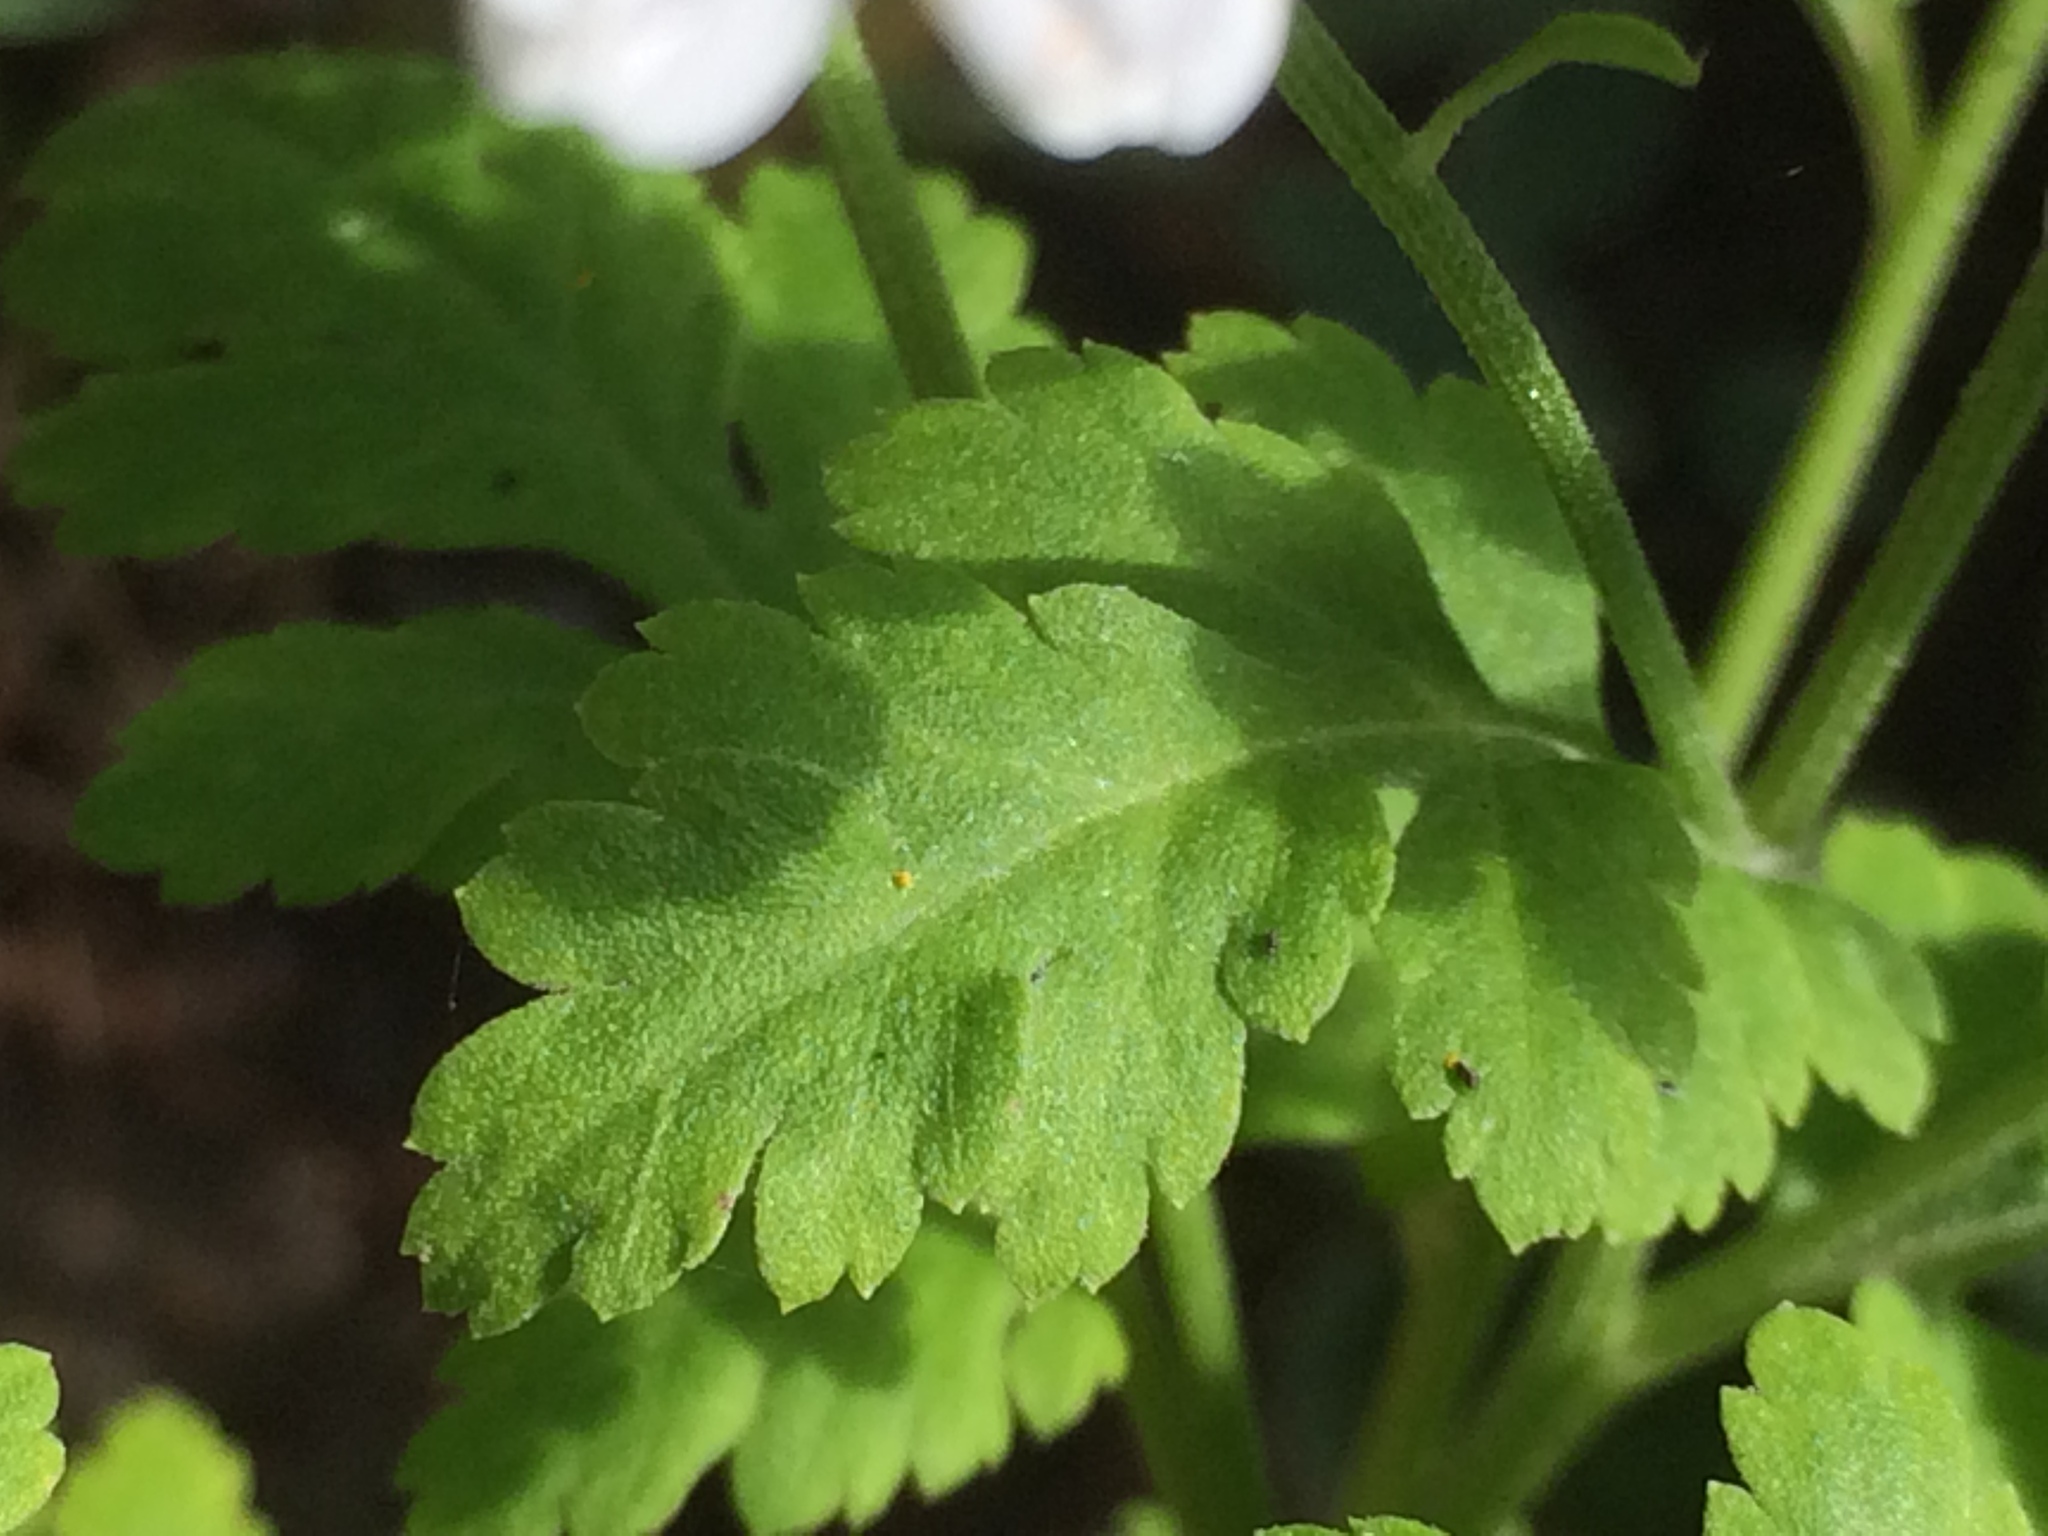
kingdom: Plantae
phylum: Tracheophyta
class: Magnoliopsida
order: Asterales
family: Asteraceae
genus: Tanacetum
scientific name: Tanacetum parthenium
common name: Feverfew
